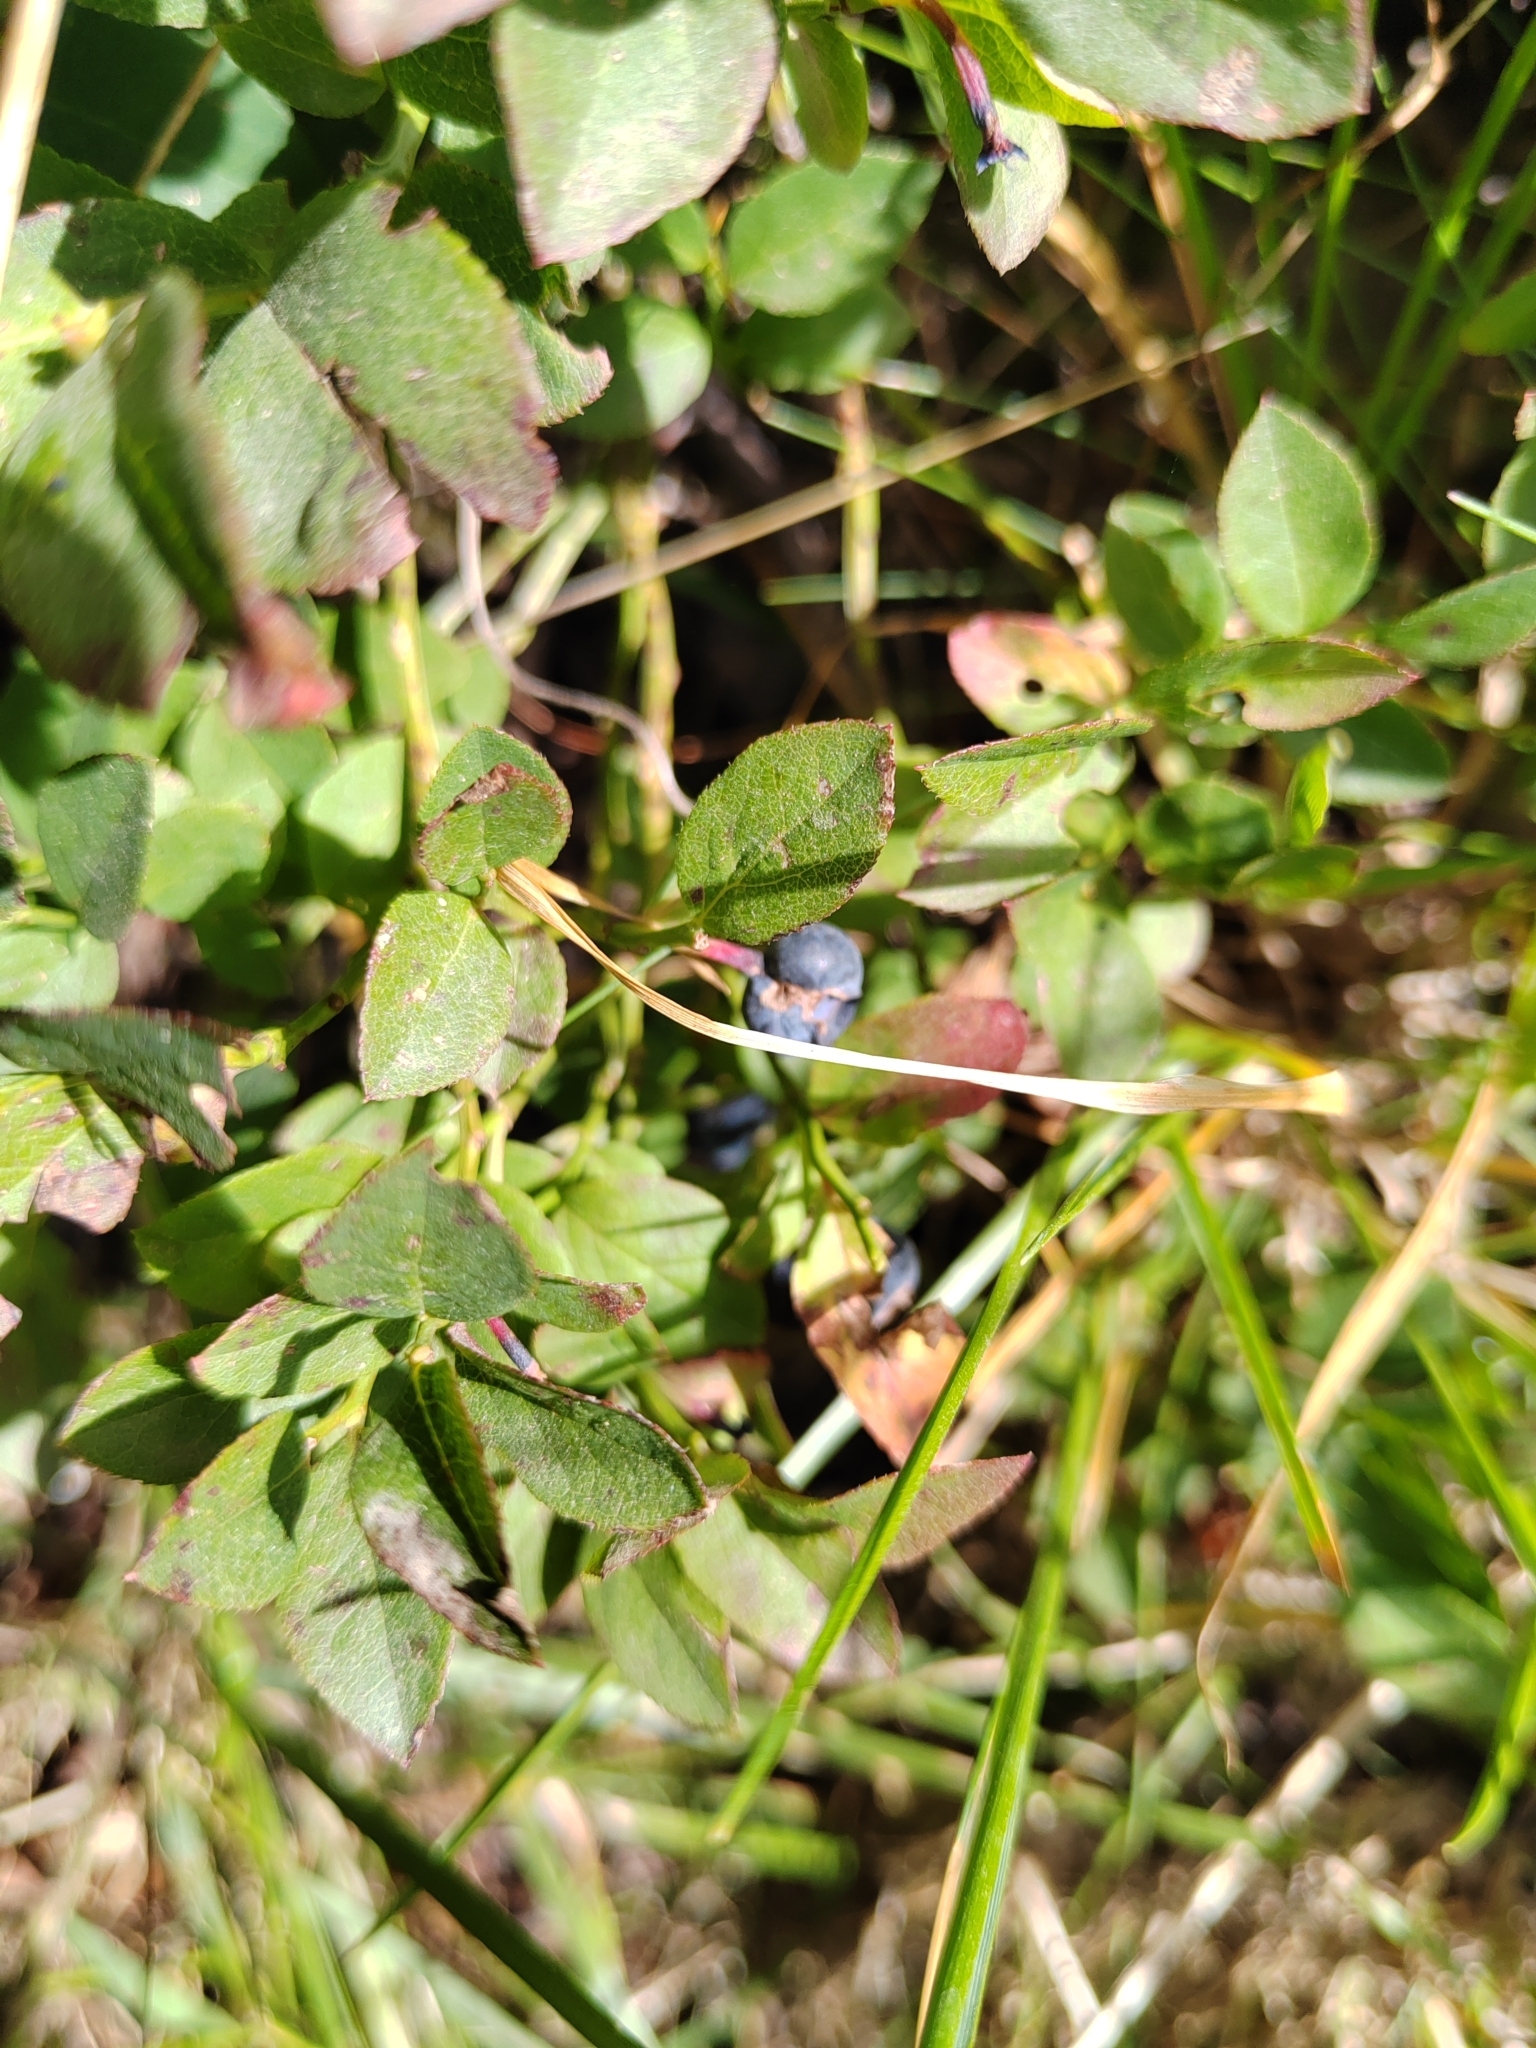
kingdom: Plantae
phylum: Tracheophyta
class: Magnoliopsida
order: Ericales
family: Ericaceae
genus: Vaccinium
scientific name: Vaccinium myrtillus
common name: Bilberry
